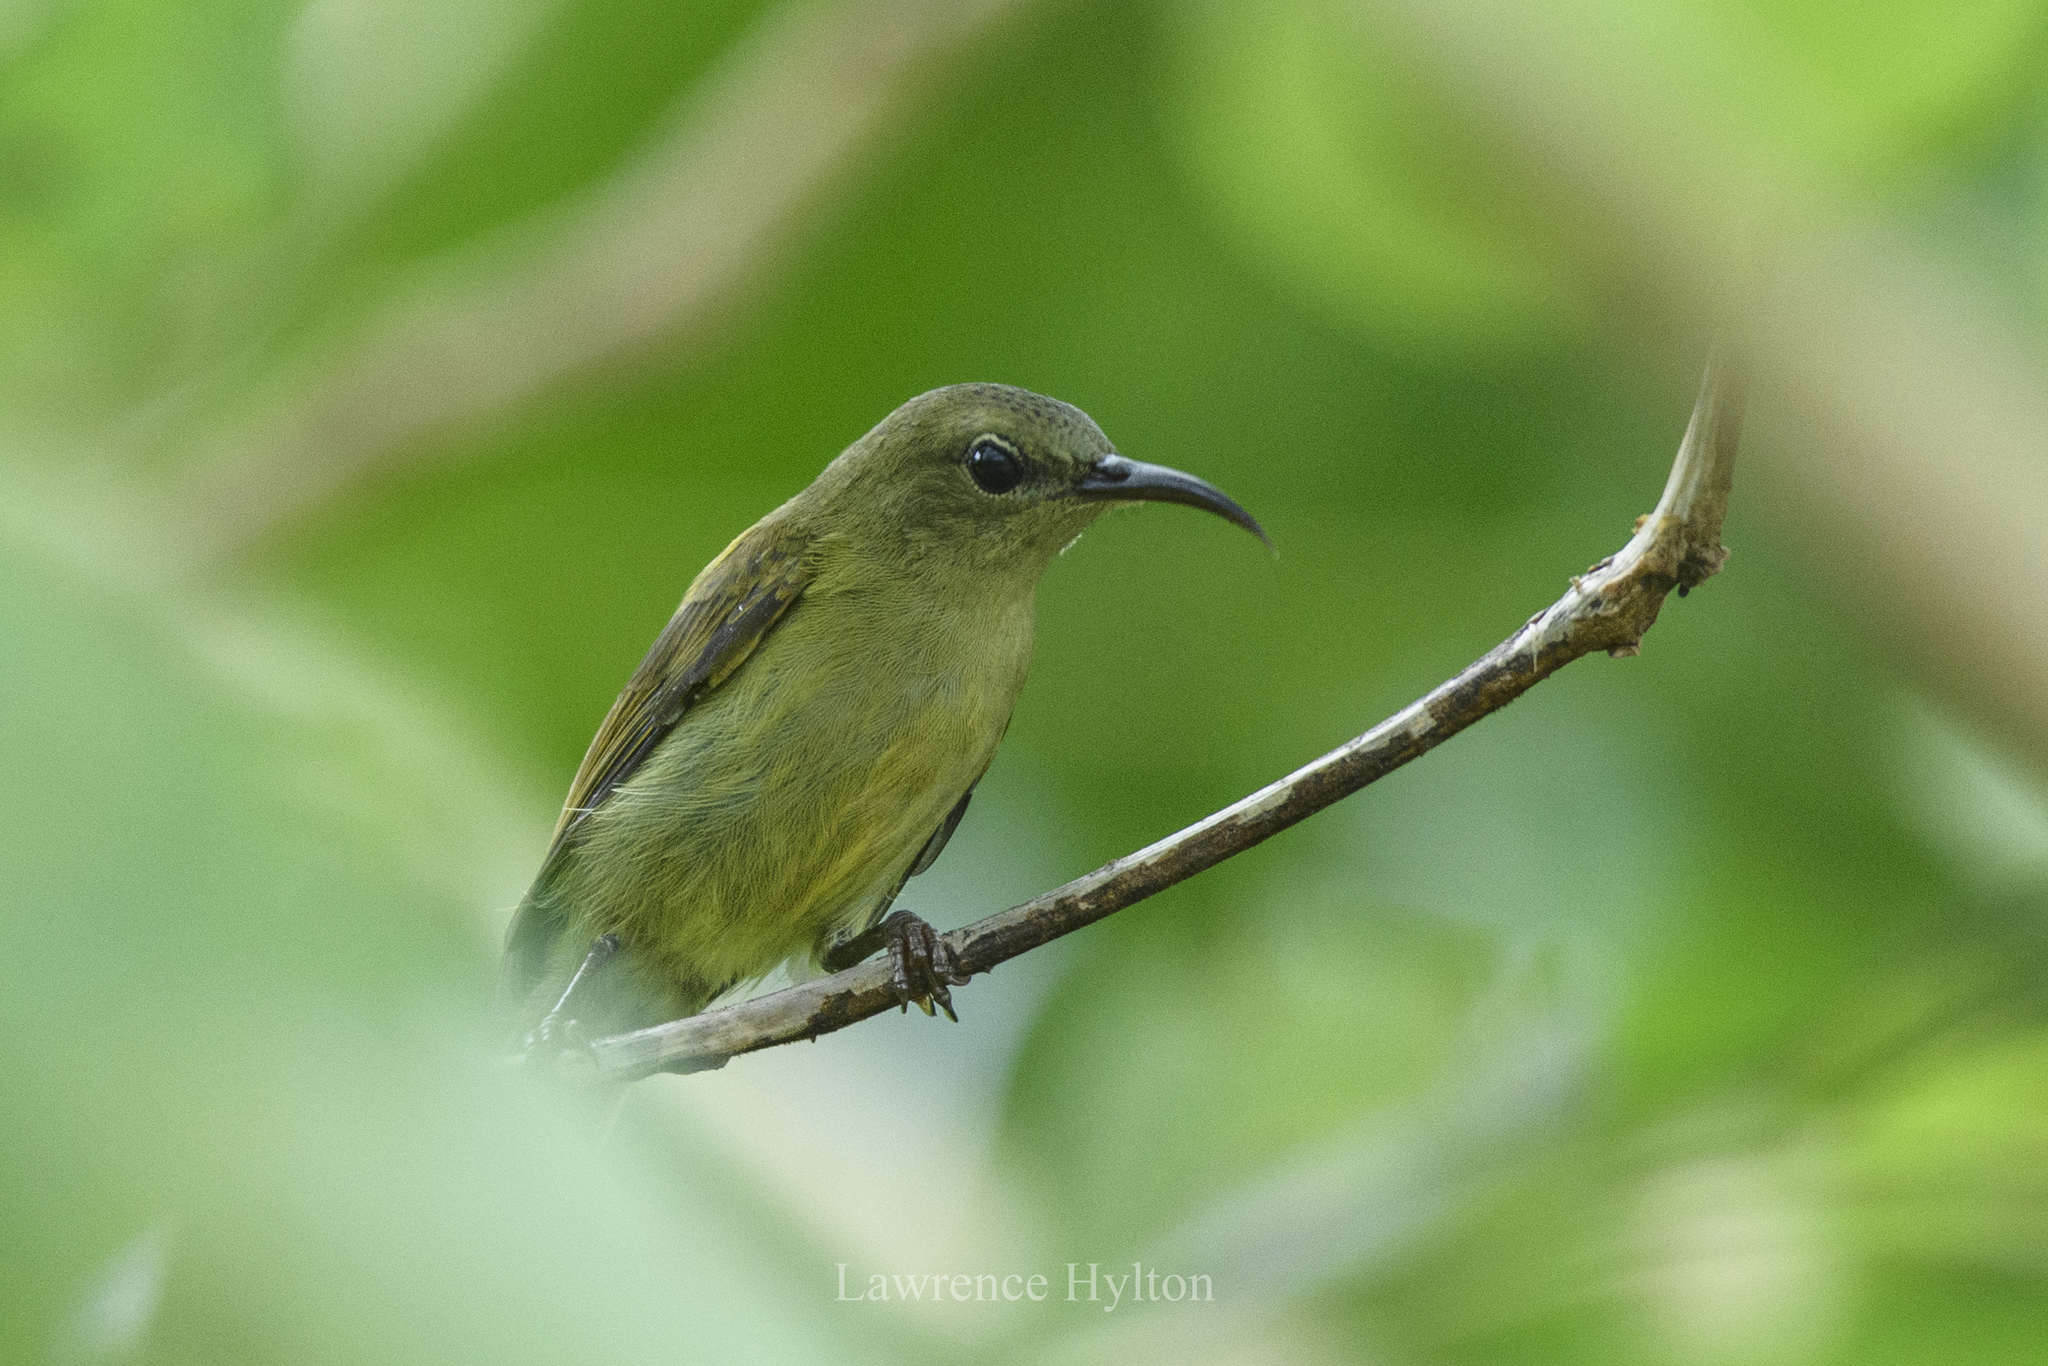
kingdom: Animalia
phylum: Chordata
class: Aves
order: Passeriformes
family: Nectariniidae
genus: Aethopyga
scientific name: Aethopyga siparaja
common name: Crimson sunbird
